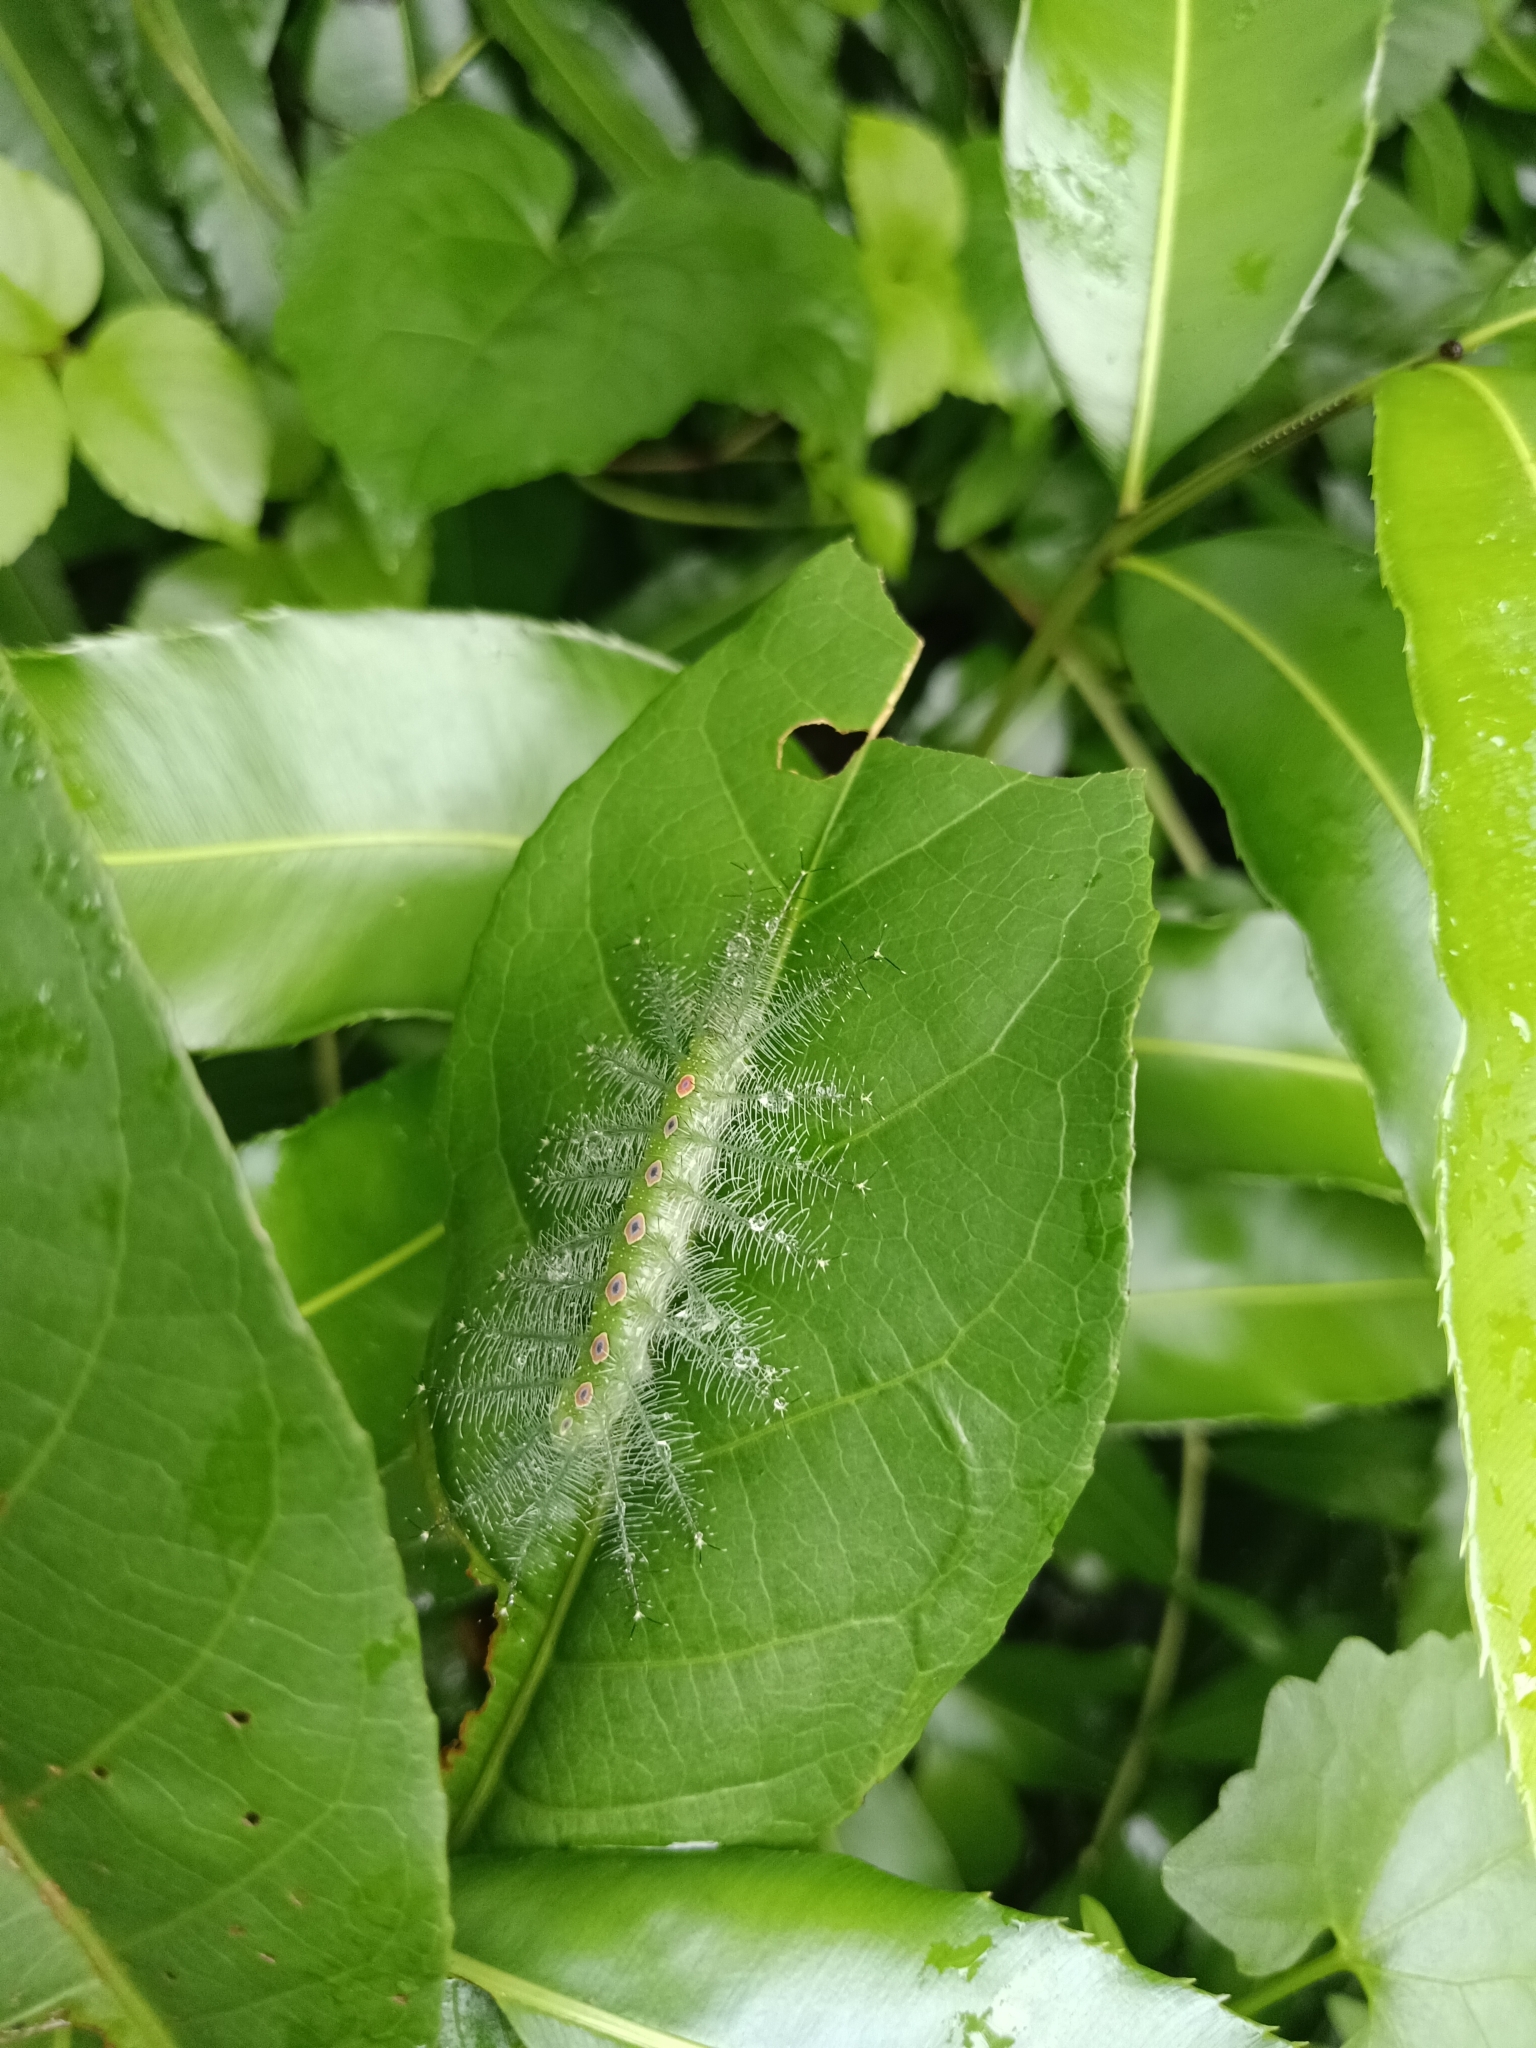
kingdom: Animalia
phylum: Arthropoda
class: Insecta
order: Lepidoptera
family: Nymphalidae
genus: Tanaecia
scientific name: Tanaecia lepidea
